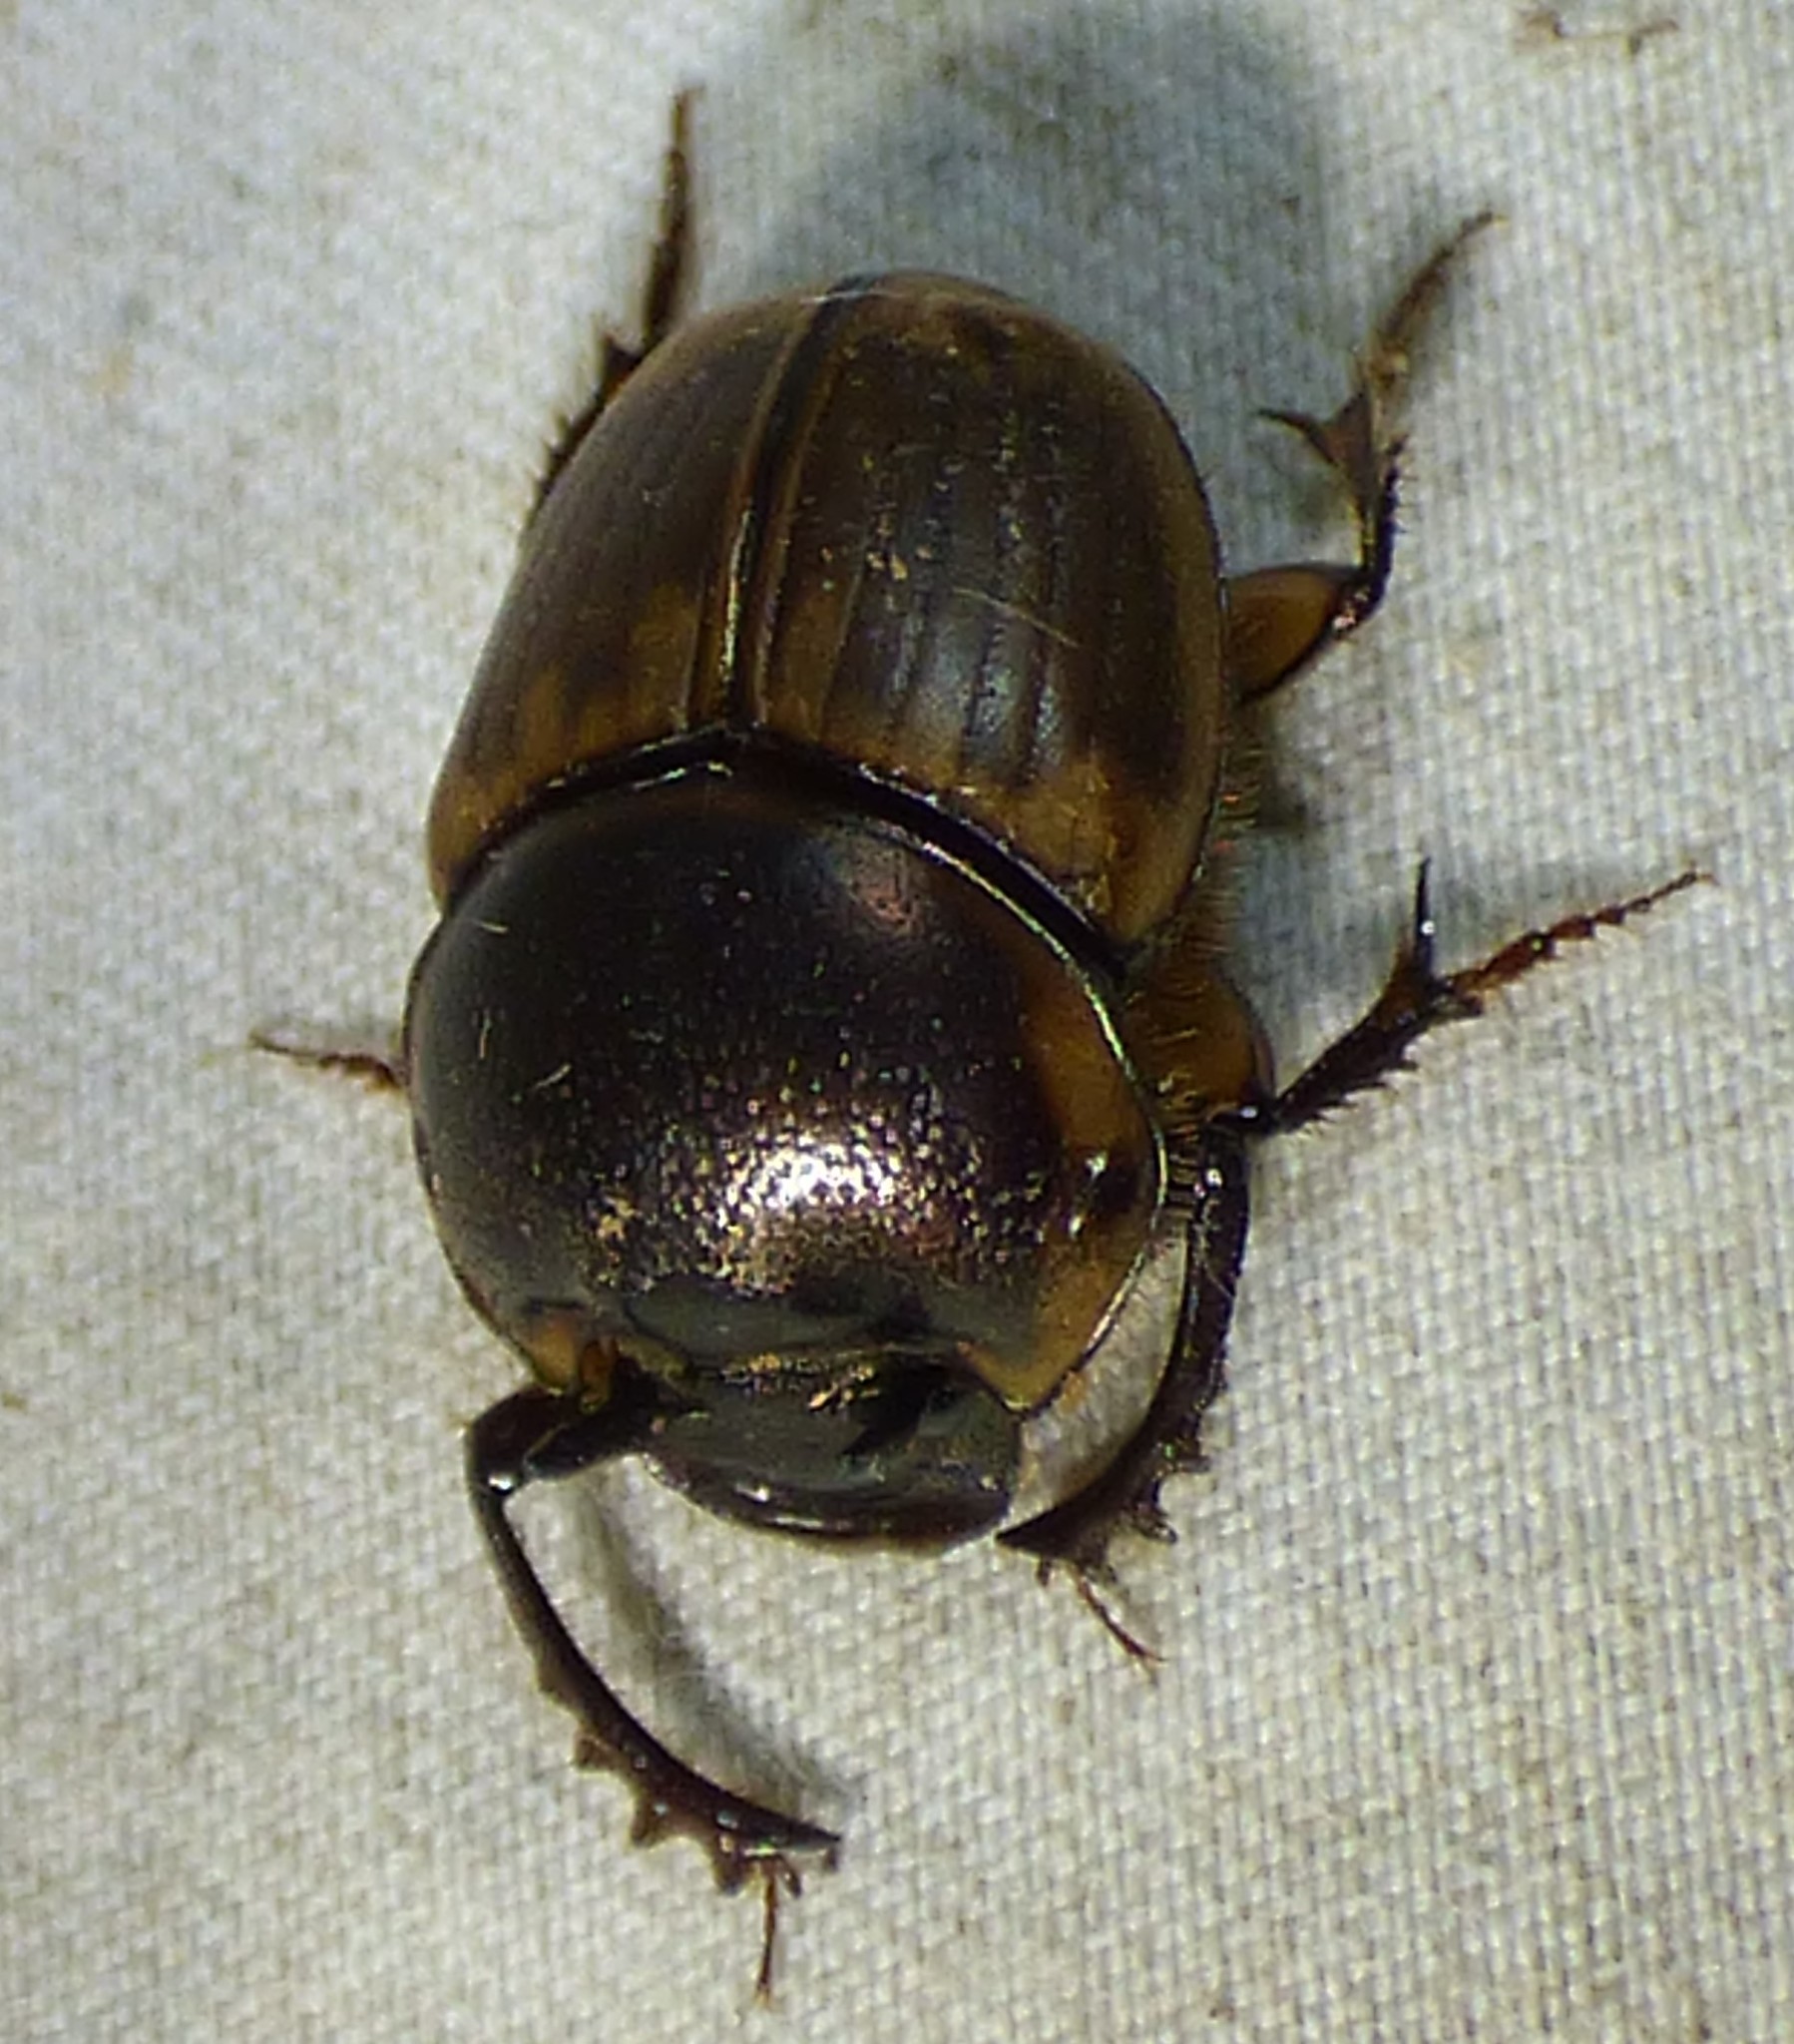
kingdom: Animalia
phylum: Arthropoda
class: Insecta
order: Coleoptera
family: Scarabaeidae
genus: Digitonthophagus
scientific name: Digitonthophagus gazella
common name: Brown dung beetle
